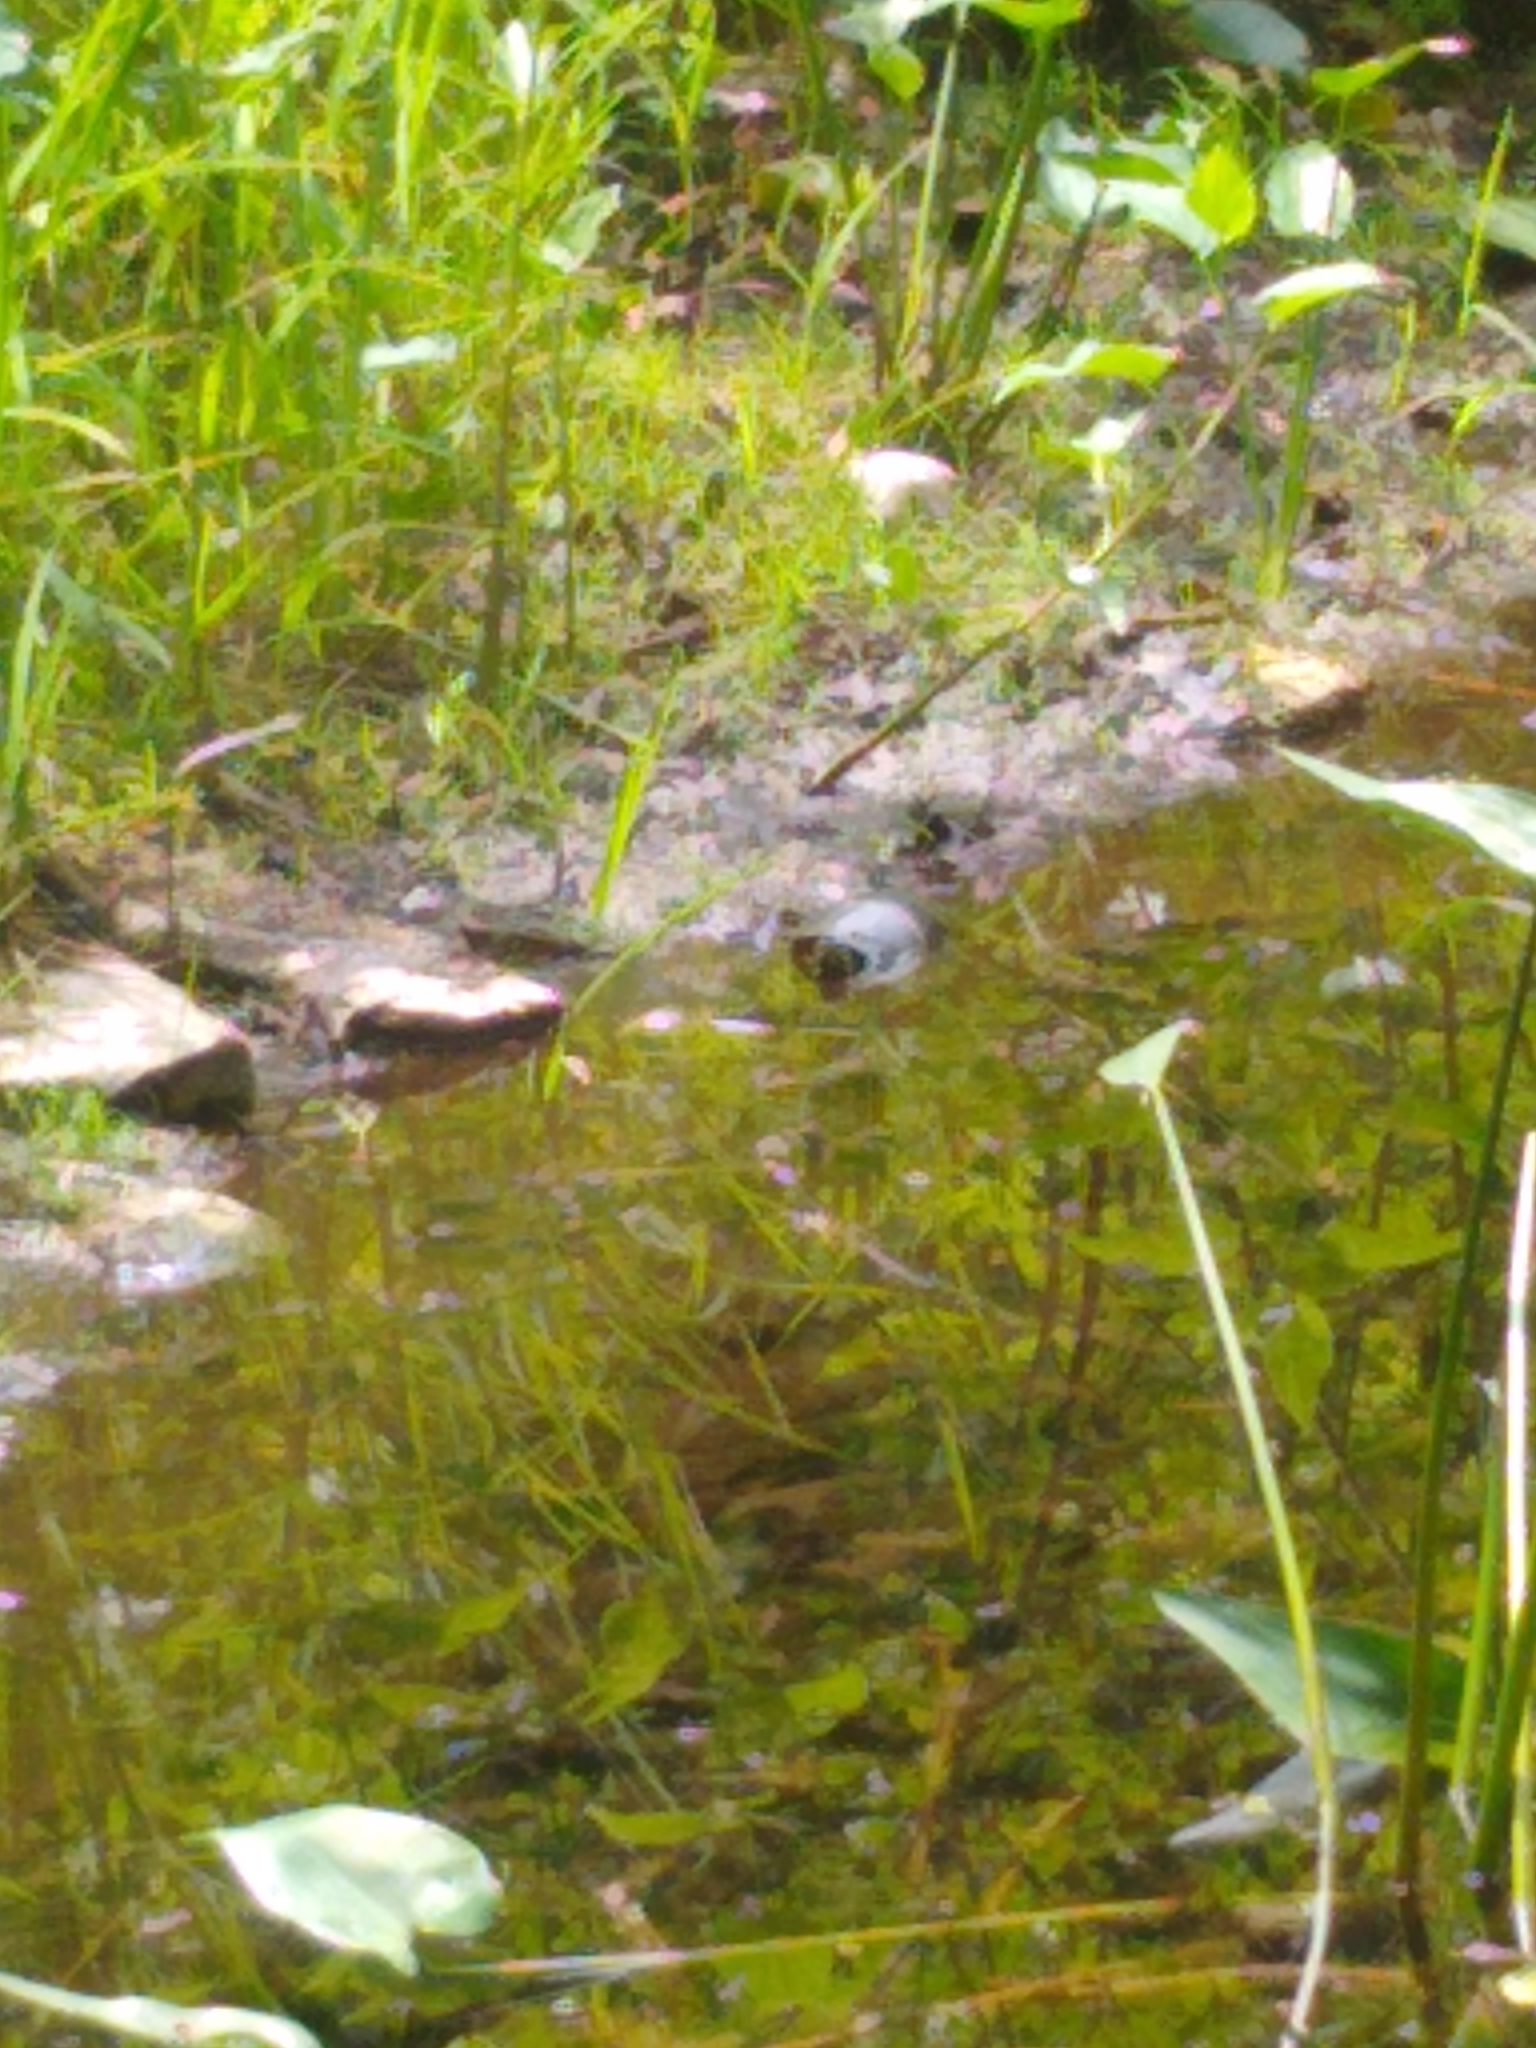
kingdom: Animalia
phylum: Chordata
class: Testudines
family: Emydidae
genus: Chrysemys
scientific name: Chrysemys picta
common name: Painted turtle
